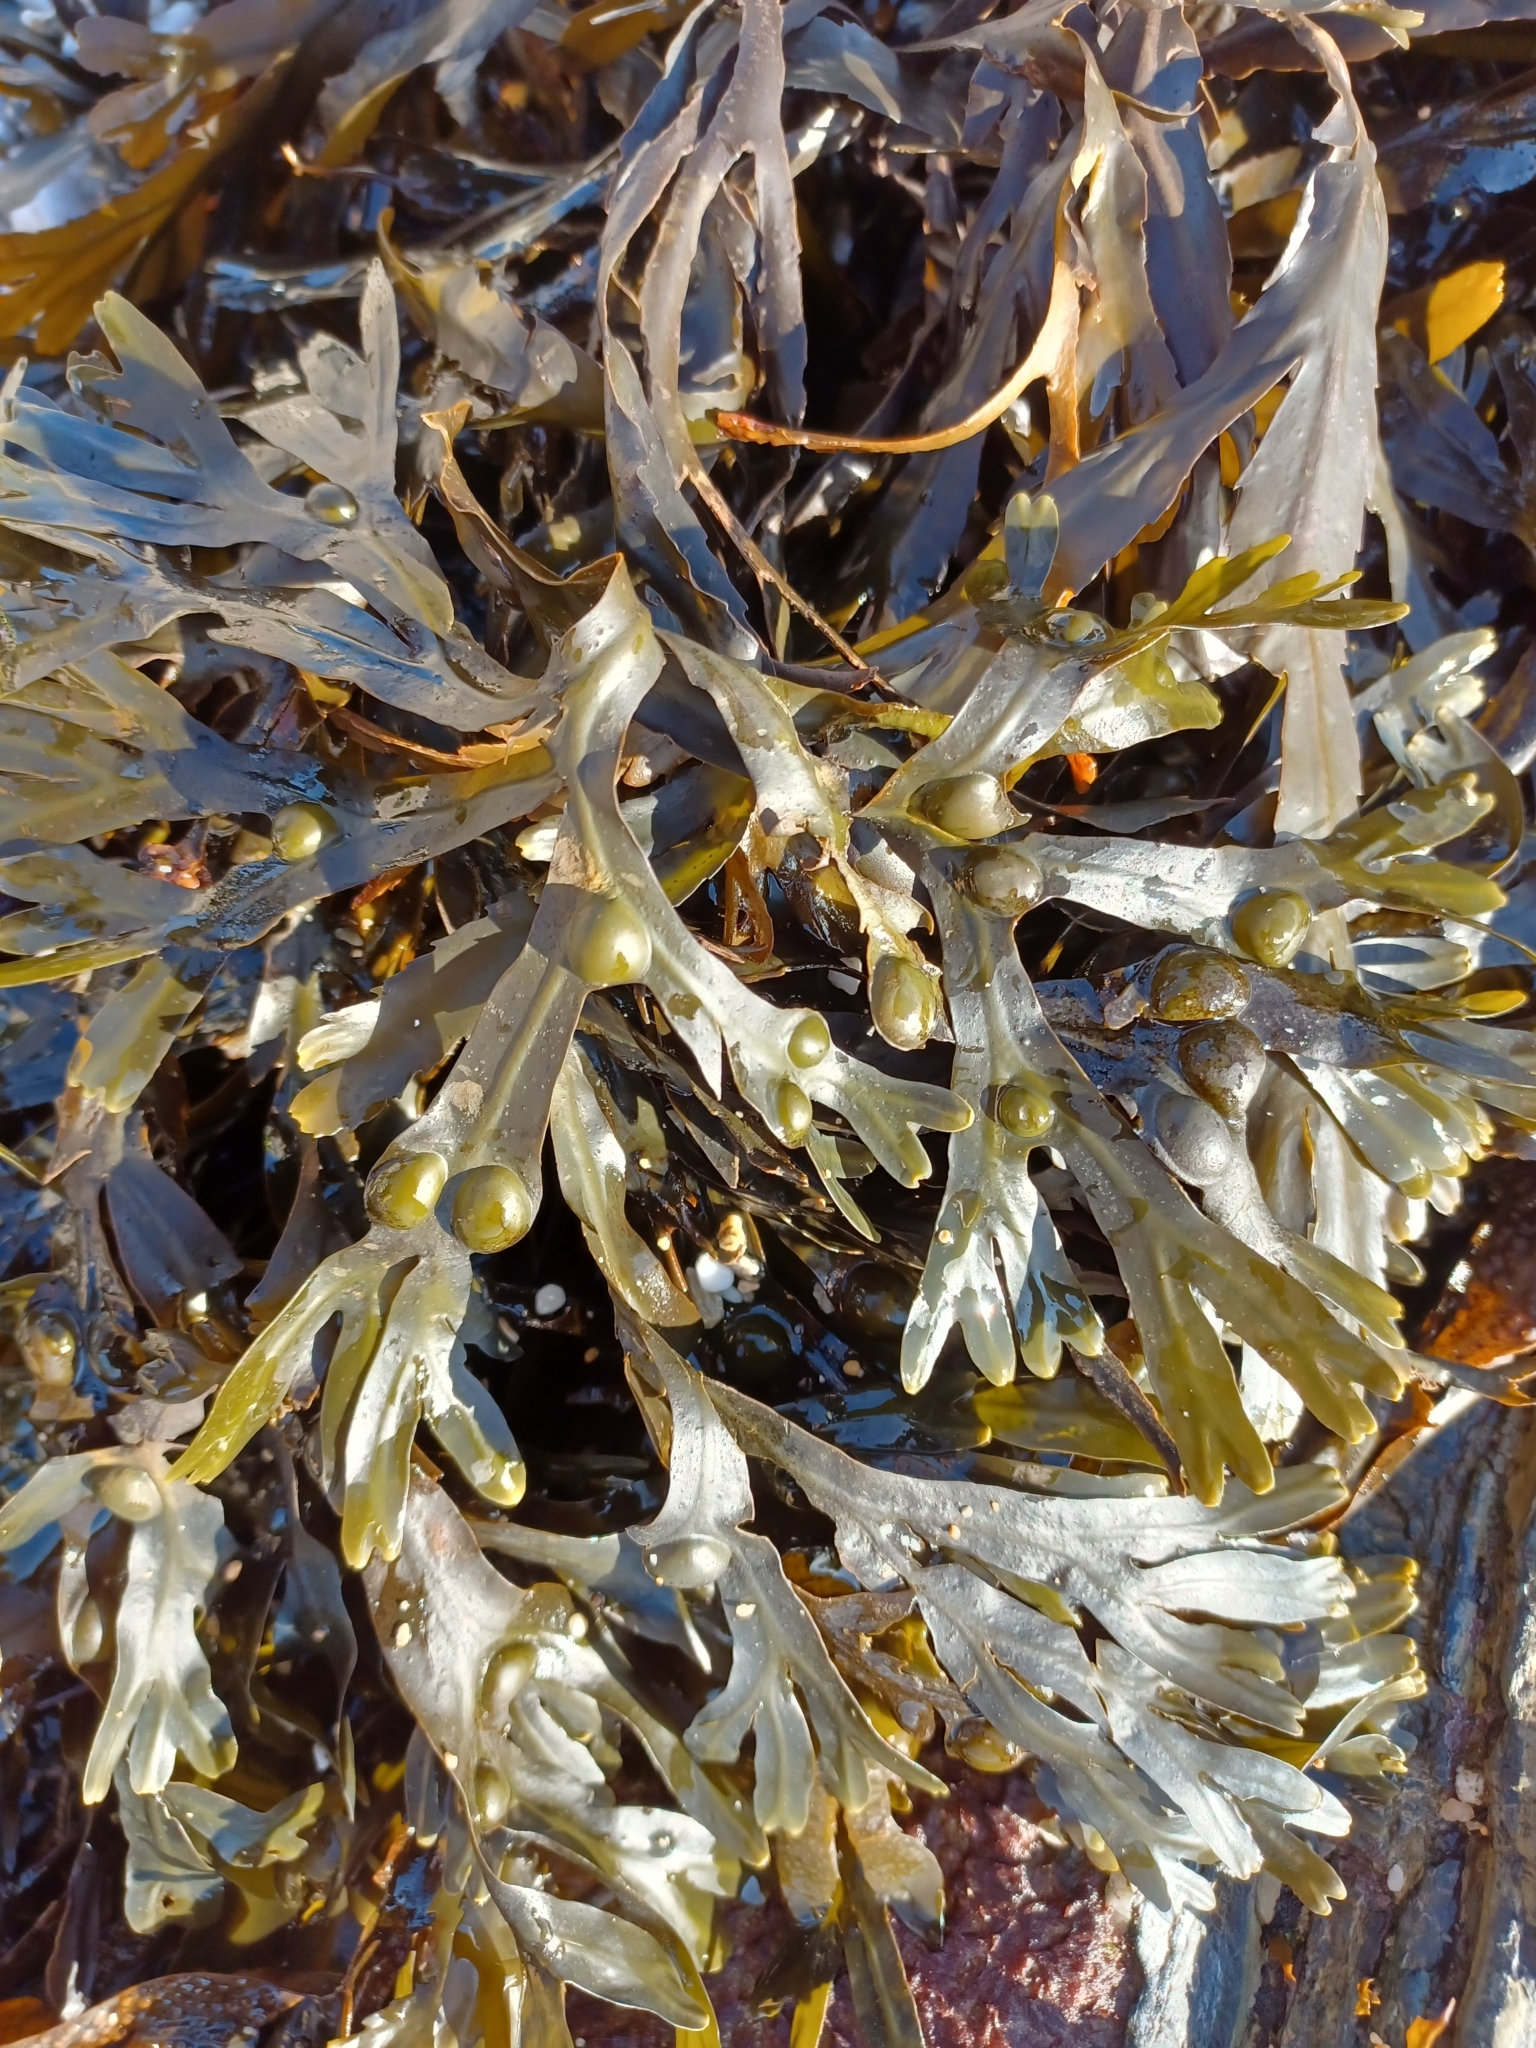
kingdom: Chromista
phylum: Ochrophyta
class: Phaeophyceae
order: Fucales
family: Fucaceae
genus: Fucus
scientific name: Fucus vesiculosus
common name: Bladder wrack
